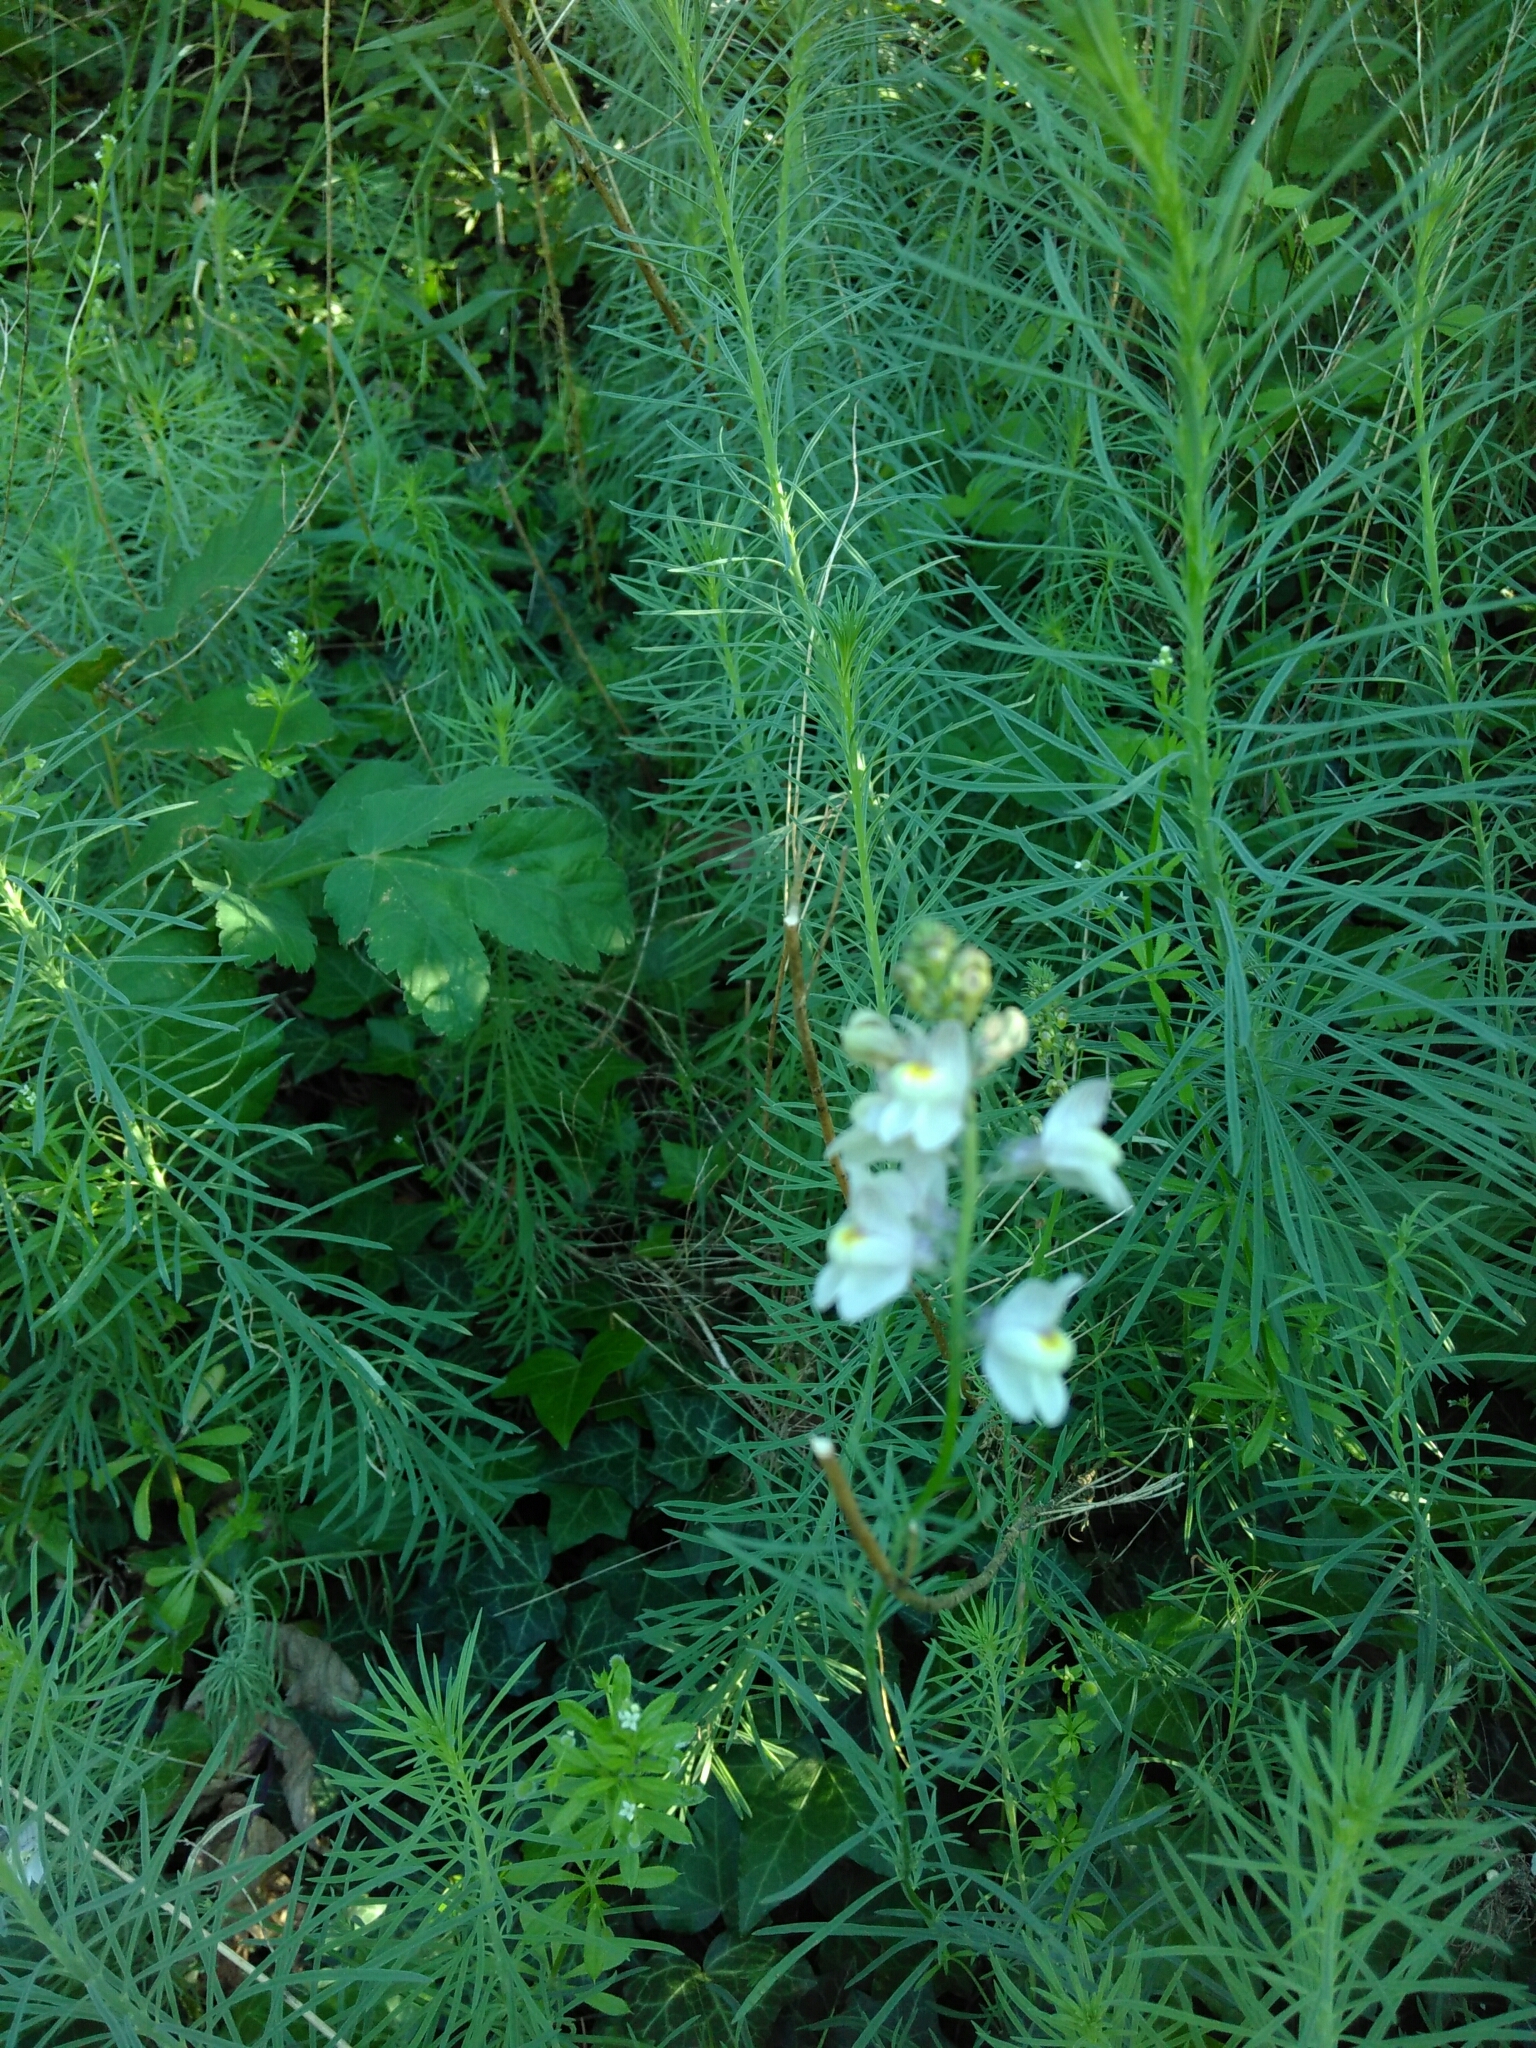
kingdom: Plantae
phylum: Tracheophyta
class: Magnoliopsida
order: Lamiales
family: Plantaginaceae
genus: Linaria
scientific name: Linaria repens
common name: Pale toadflax
